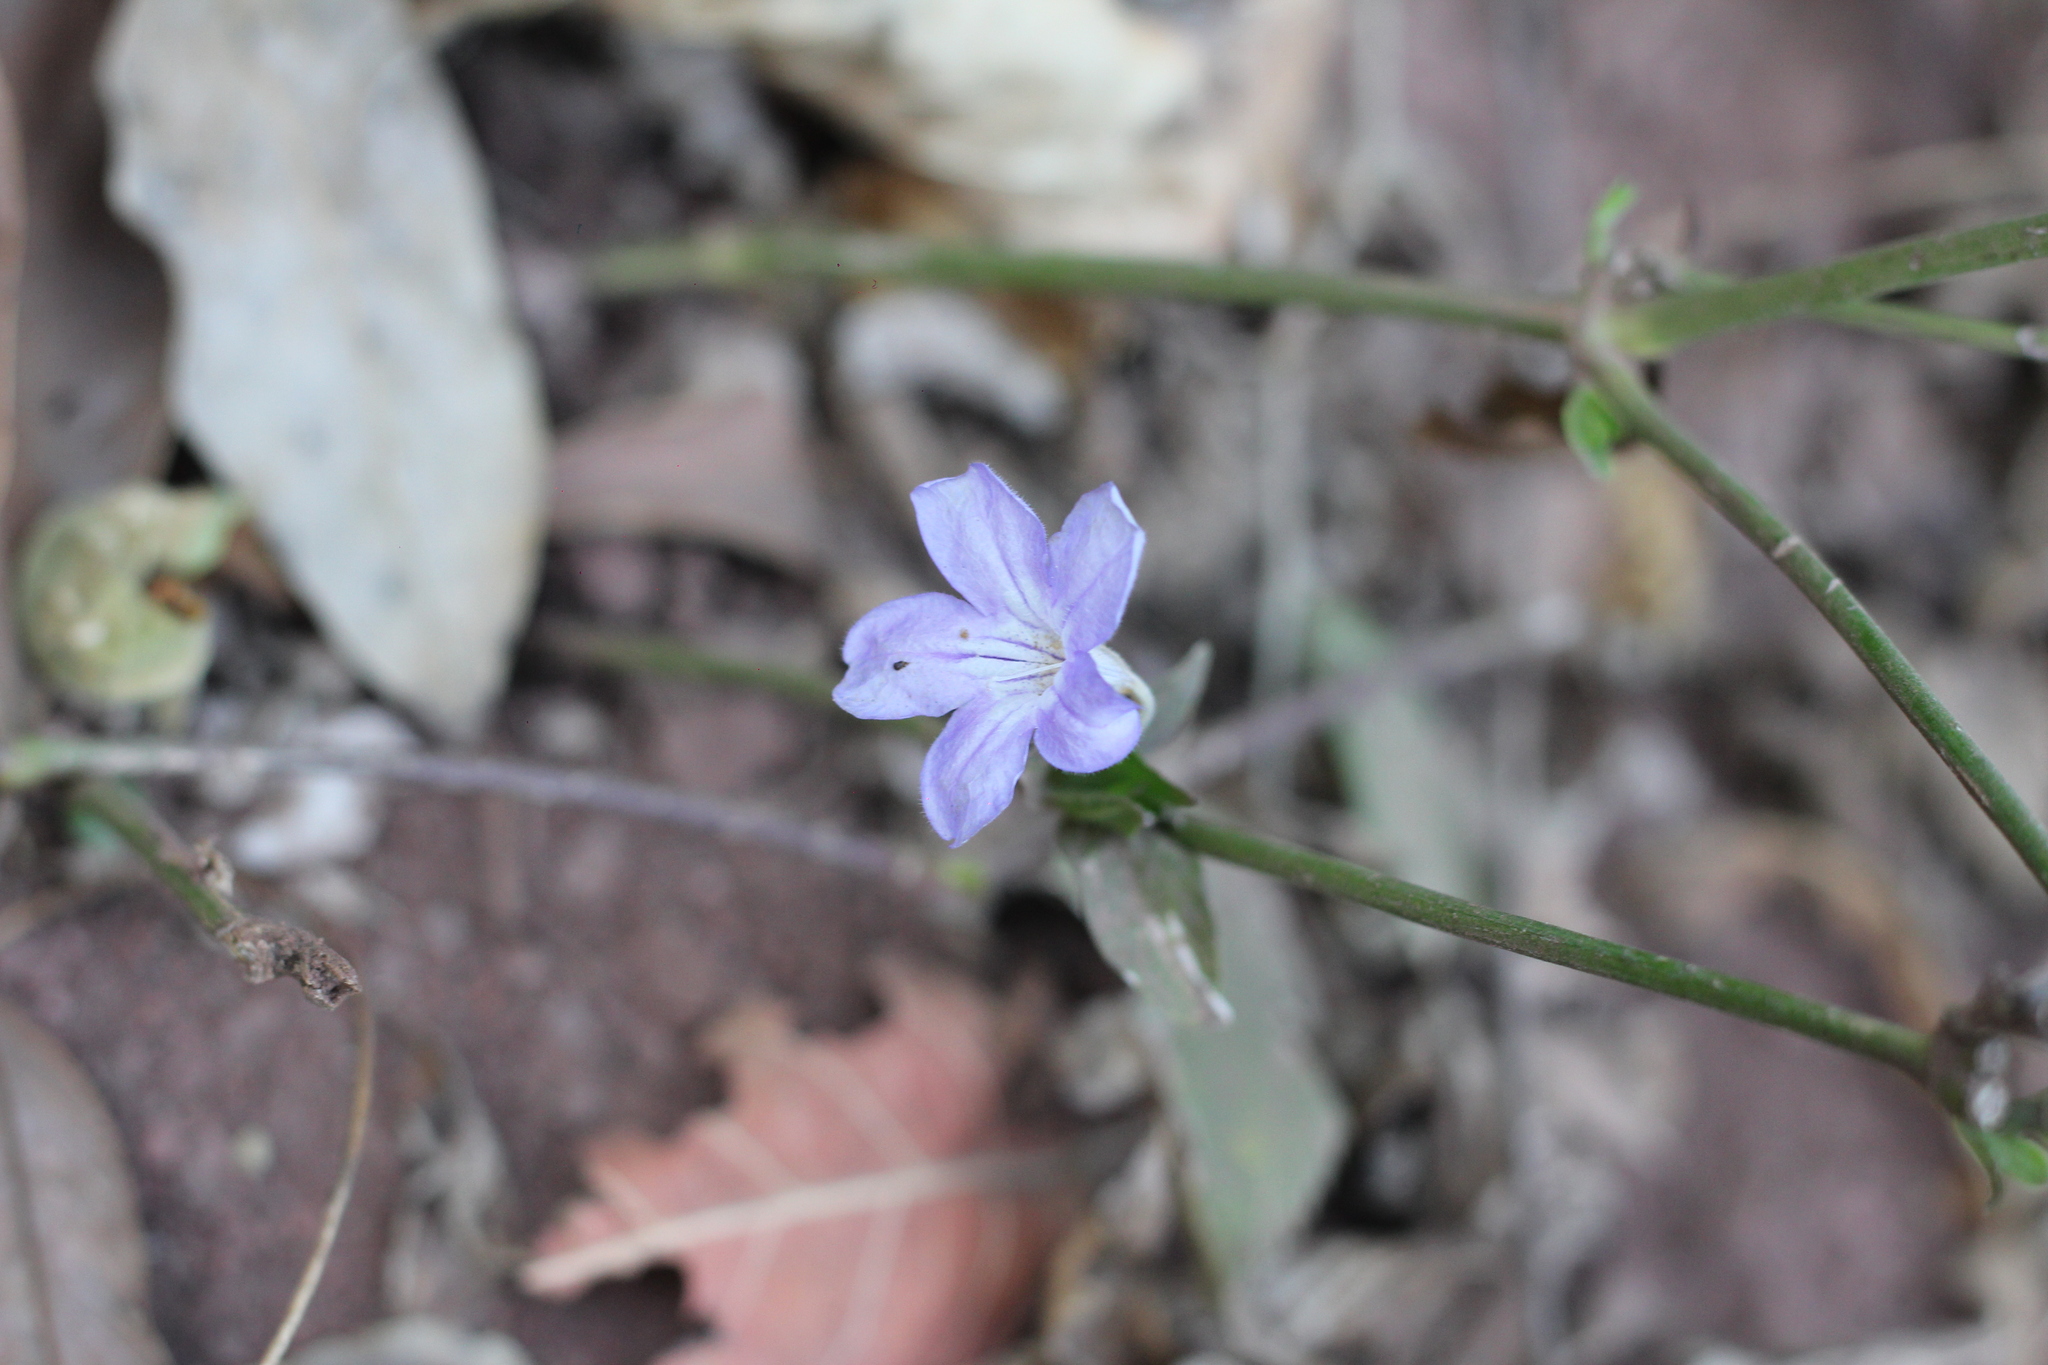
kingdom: Plantae
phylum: Tracheophyta
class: Magnoliopsida
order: Lamiales
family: Acanthaceae
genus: Ruellia
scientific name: Ruellia erythropus
